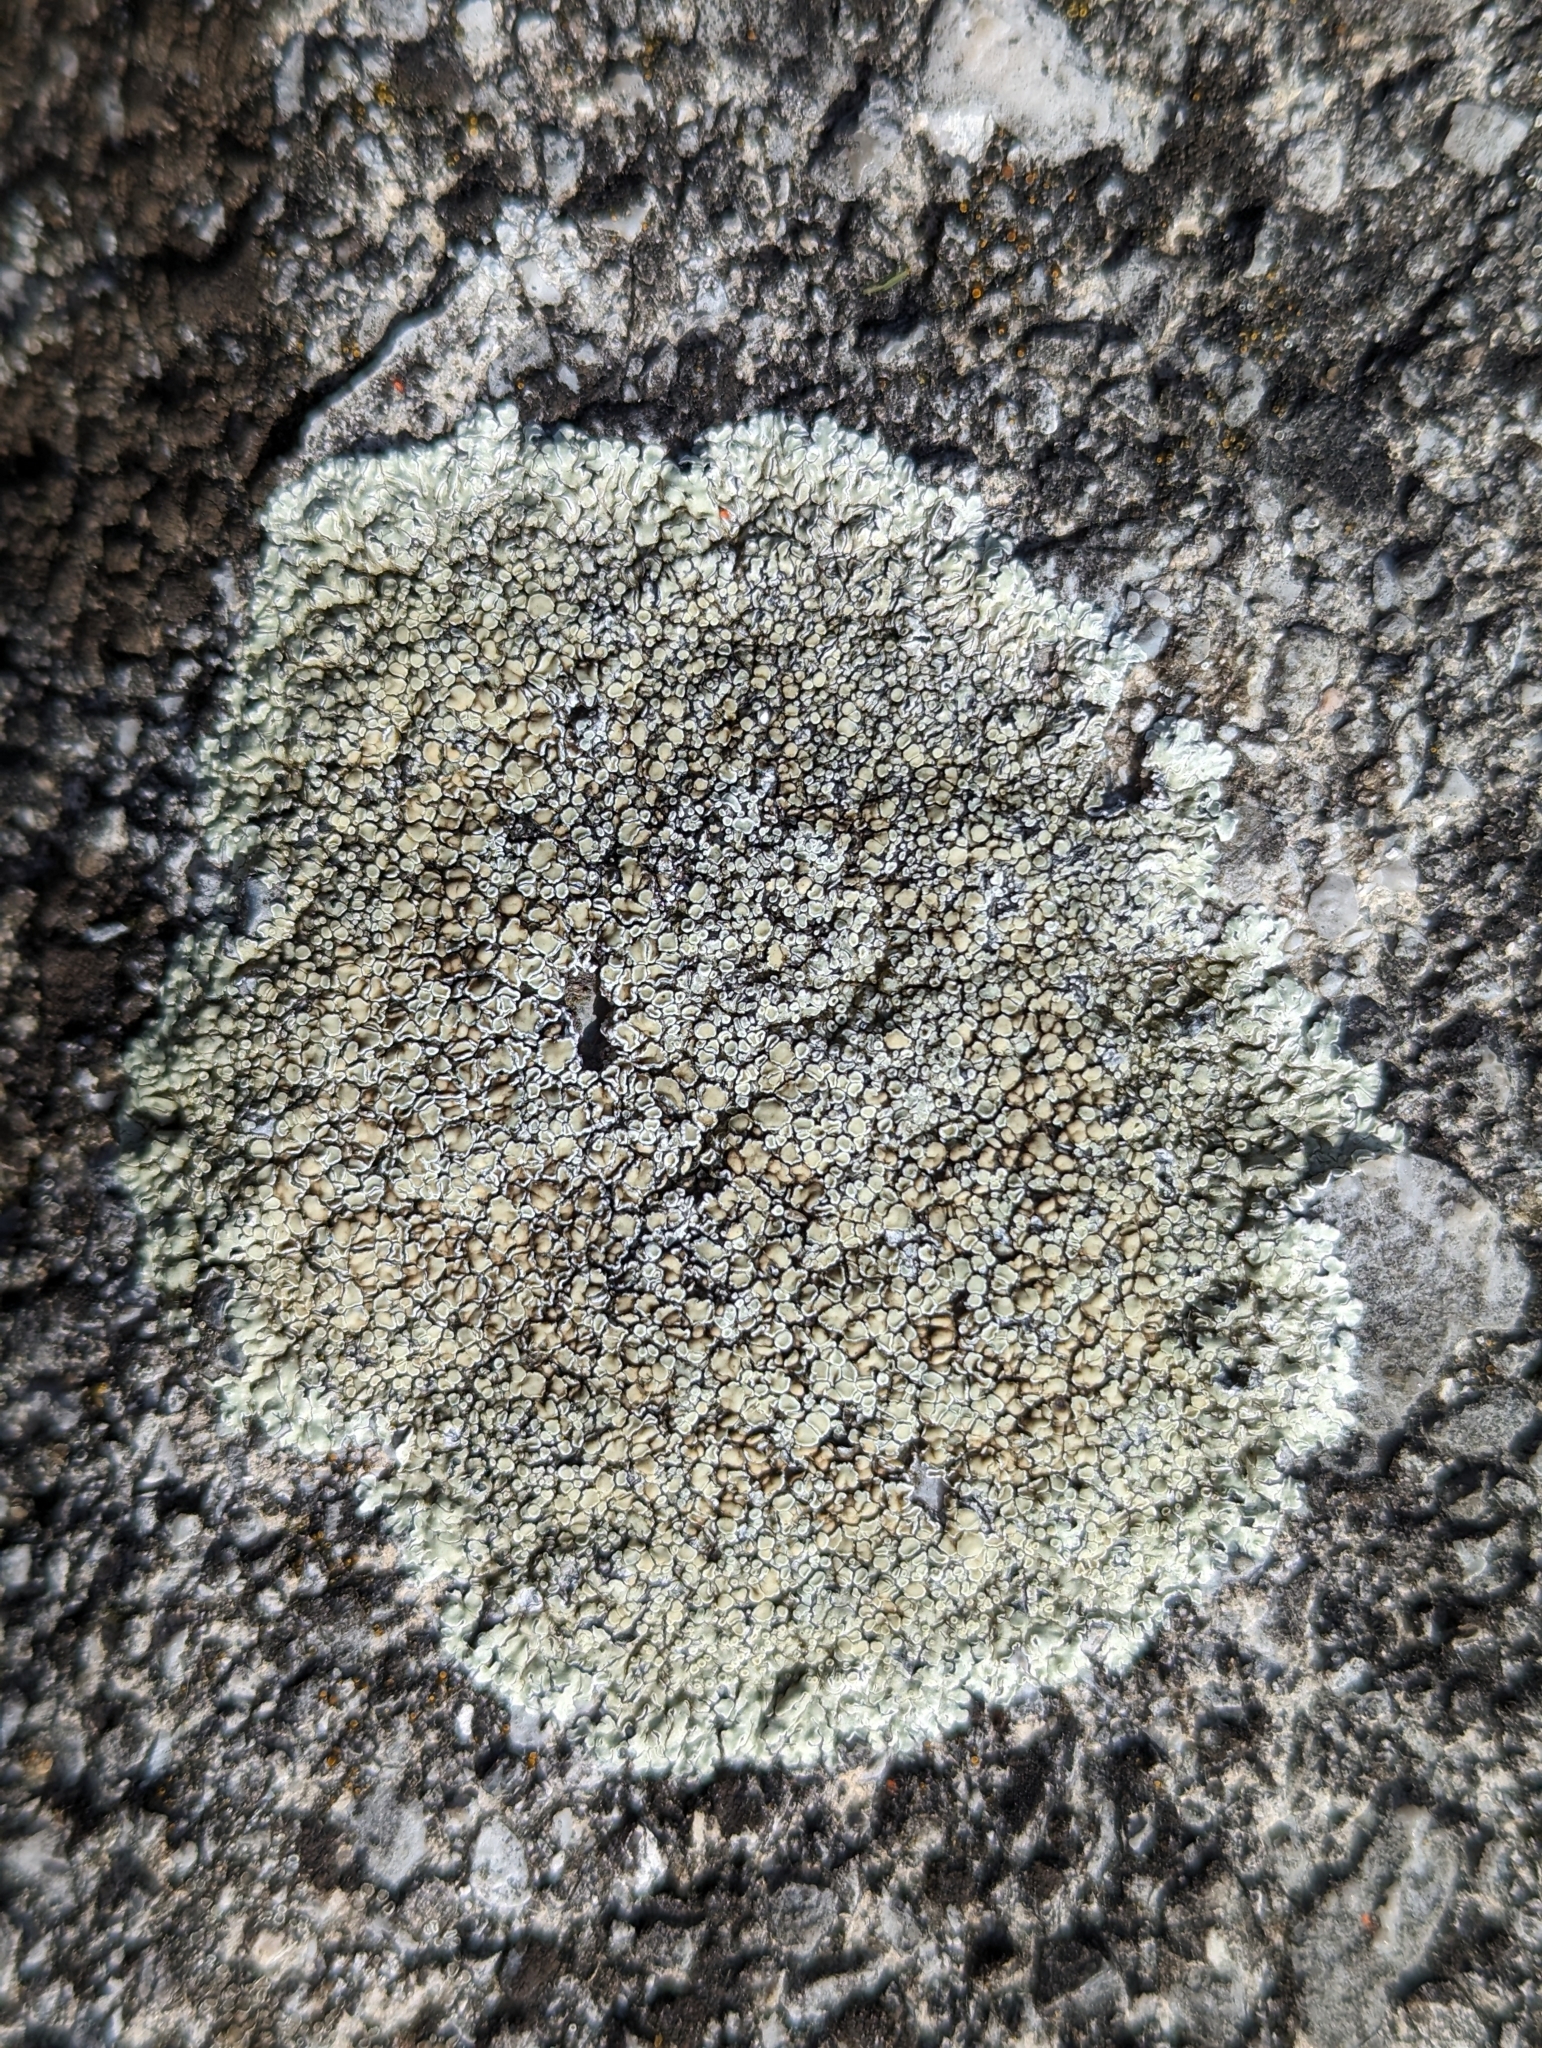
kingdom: Fungi
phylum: Ascomycota
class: Lecanoromycetes
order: Lecanorales
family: Lecanoraceae
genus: Protoparmeliopsis
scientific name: Protoparmeliopsis muralis
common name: Stonewall rim lichen
